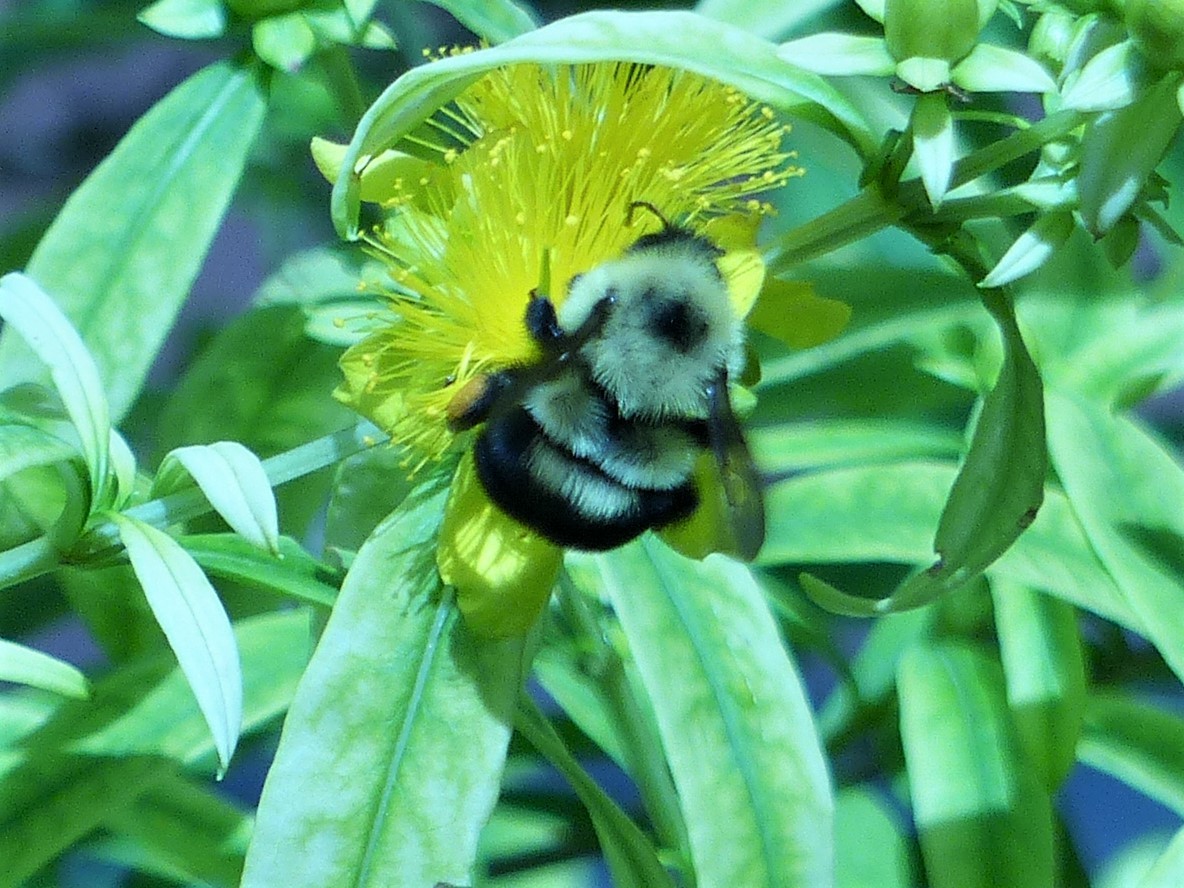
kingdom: Animalia
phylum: Arthropoda
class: Insecta
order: Hymenoptera
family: Apidae
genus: Bombus
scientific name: Bombus bimaculatus
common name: Two-spotted bumble bee
